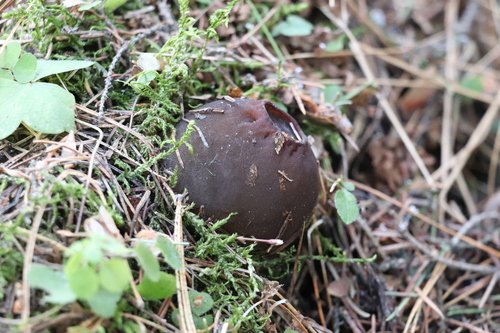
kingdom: Fungi
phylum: Ascomycota
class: Pezizomycetes
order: Pezizales
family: Sarcosomataceae
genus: Sarcosoma
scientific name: Sarcosoma globosum
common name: Charred-pancake cup
